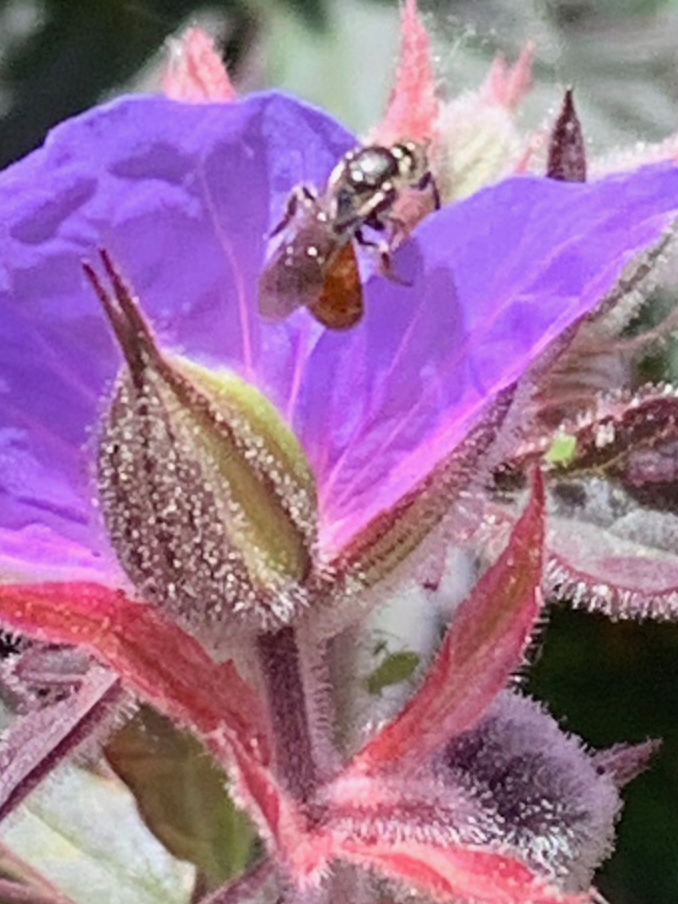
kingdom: Animalia
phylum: Arthropoda
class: Insecta
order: Hymenoptera
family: Halictidae
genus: Lasioglossum
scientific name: Lasioglossum ovaliceps
